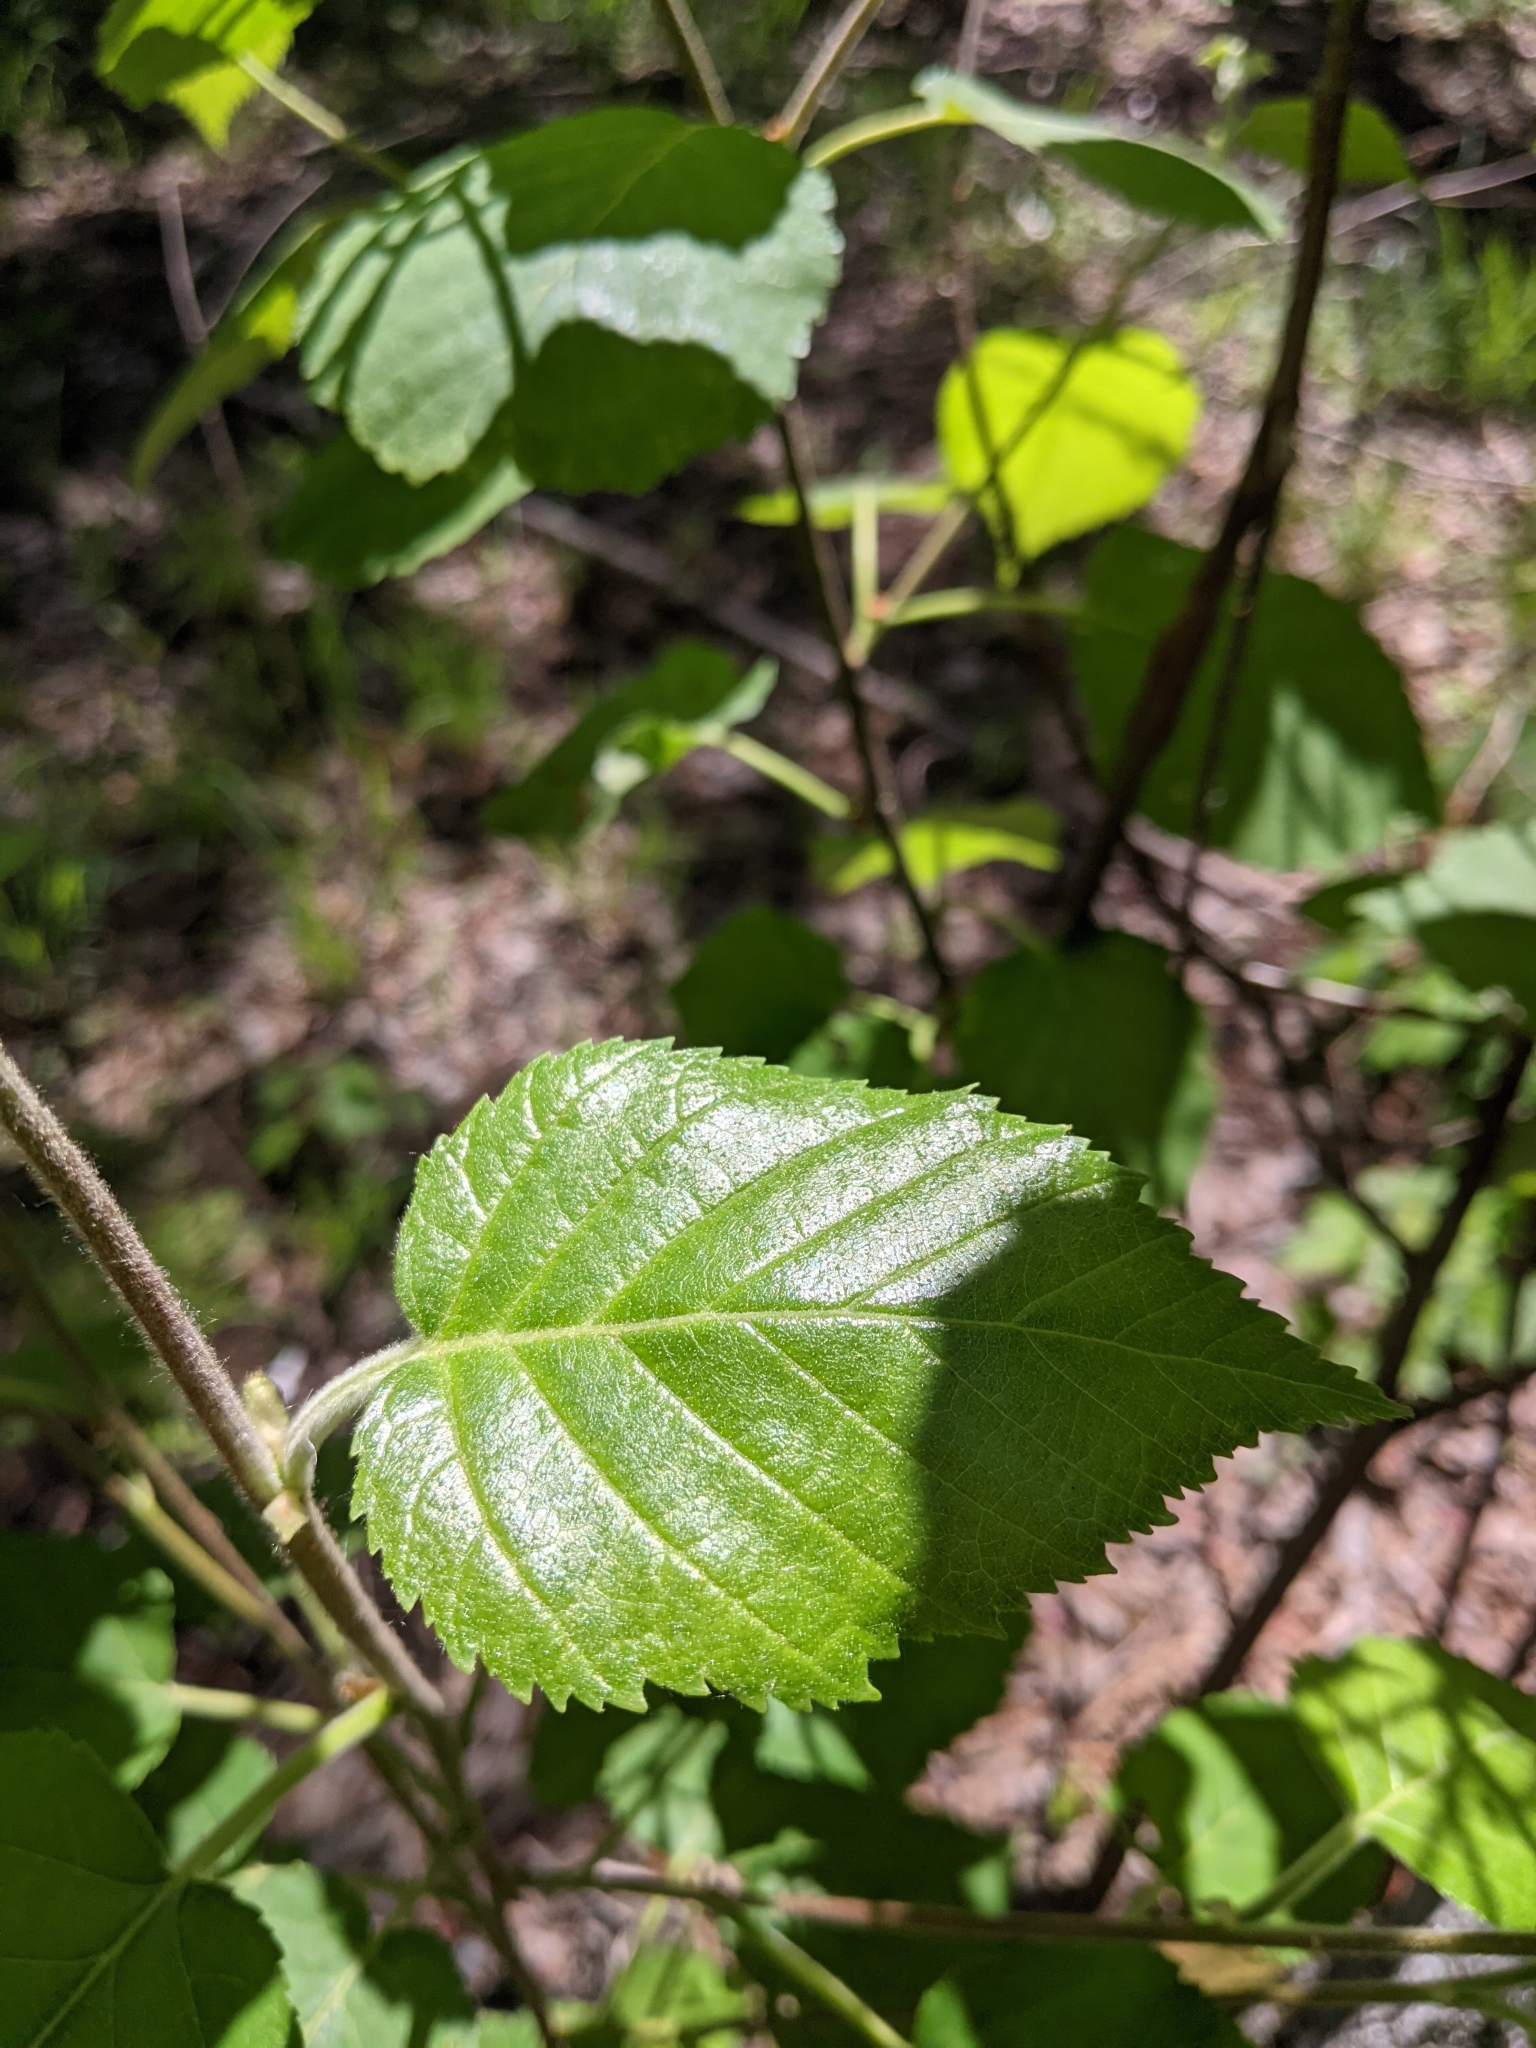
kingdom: Plantae
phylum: Tracheophyta
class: Magnoliopsida
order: Fagales
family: Betulaceae
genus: Betula
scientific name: Betula papyrifera
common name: Paper birch
